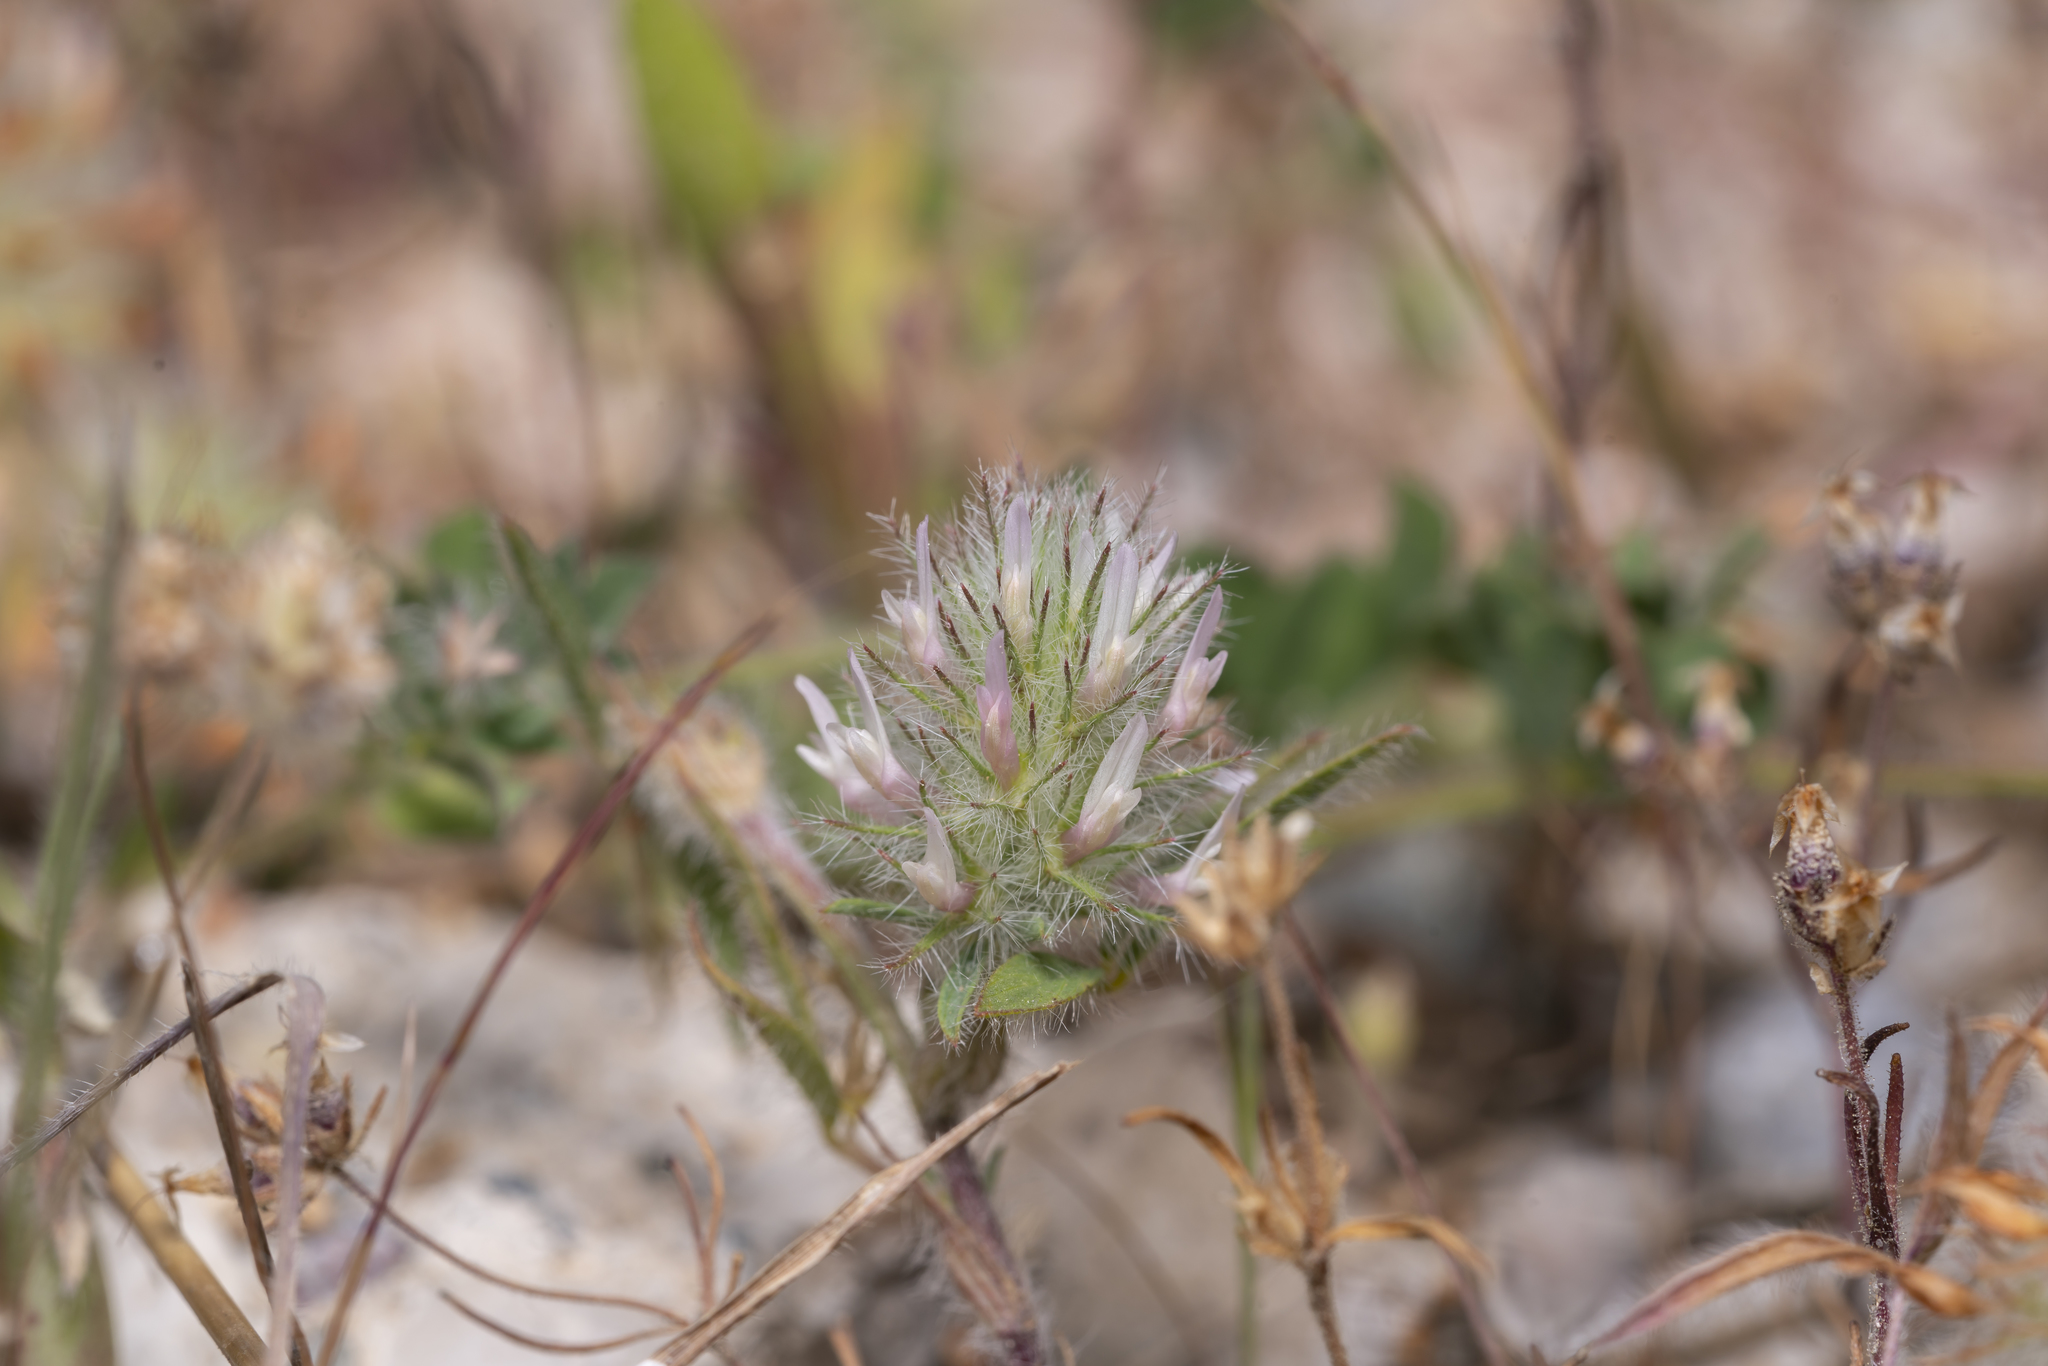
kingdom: Plantae
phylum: Tracheophyta
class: Magnoliopsida
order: Fabales
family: Fabaceae
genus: Trifolium
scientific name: Trifolium infamia-ponertii
